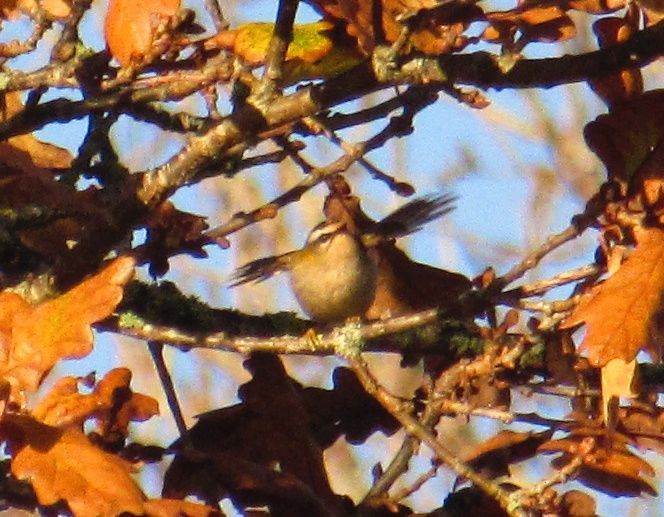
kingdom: Animalia
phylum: Chordata
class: Aves
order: Passeriformes
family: Regulidae
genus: Regulus
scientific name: Regulus ignicapilla
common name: Firecrest
